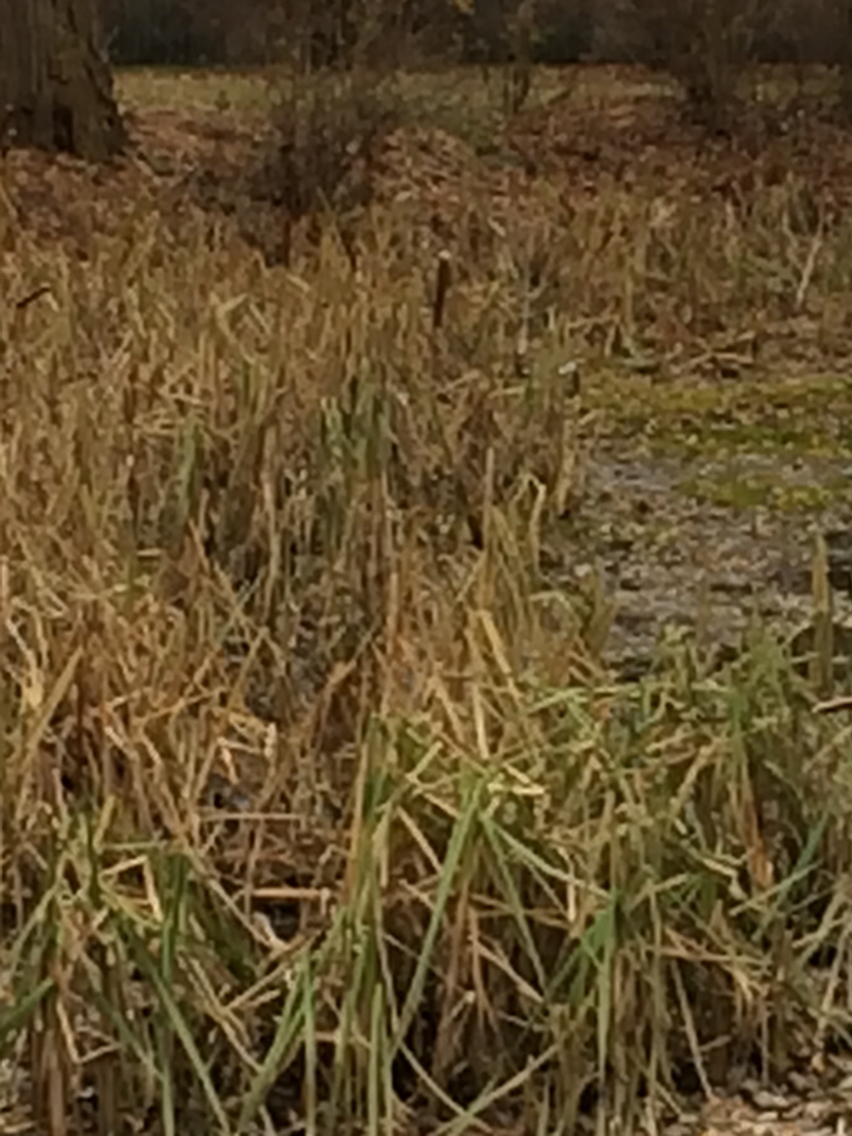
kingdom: Plantae
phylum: Tracheophyta
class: Liliopsida
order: Poales
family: Typhaceae
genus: Typha
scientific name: Typha latifolia
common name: Broadleaf cattail
